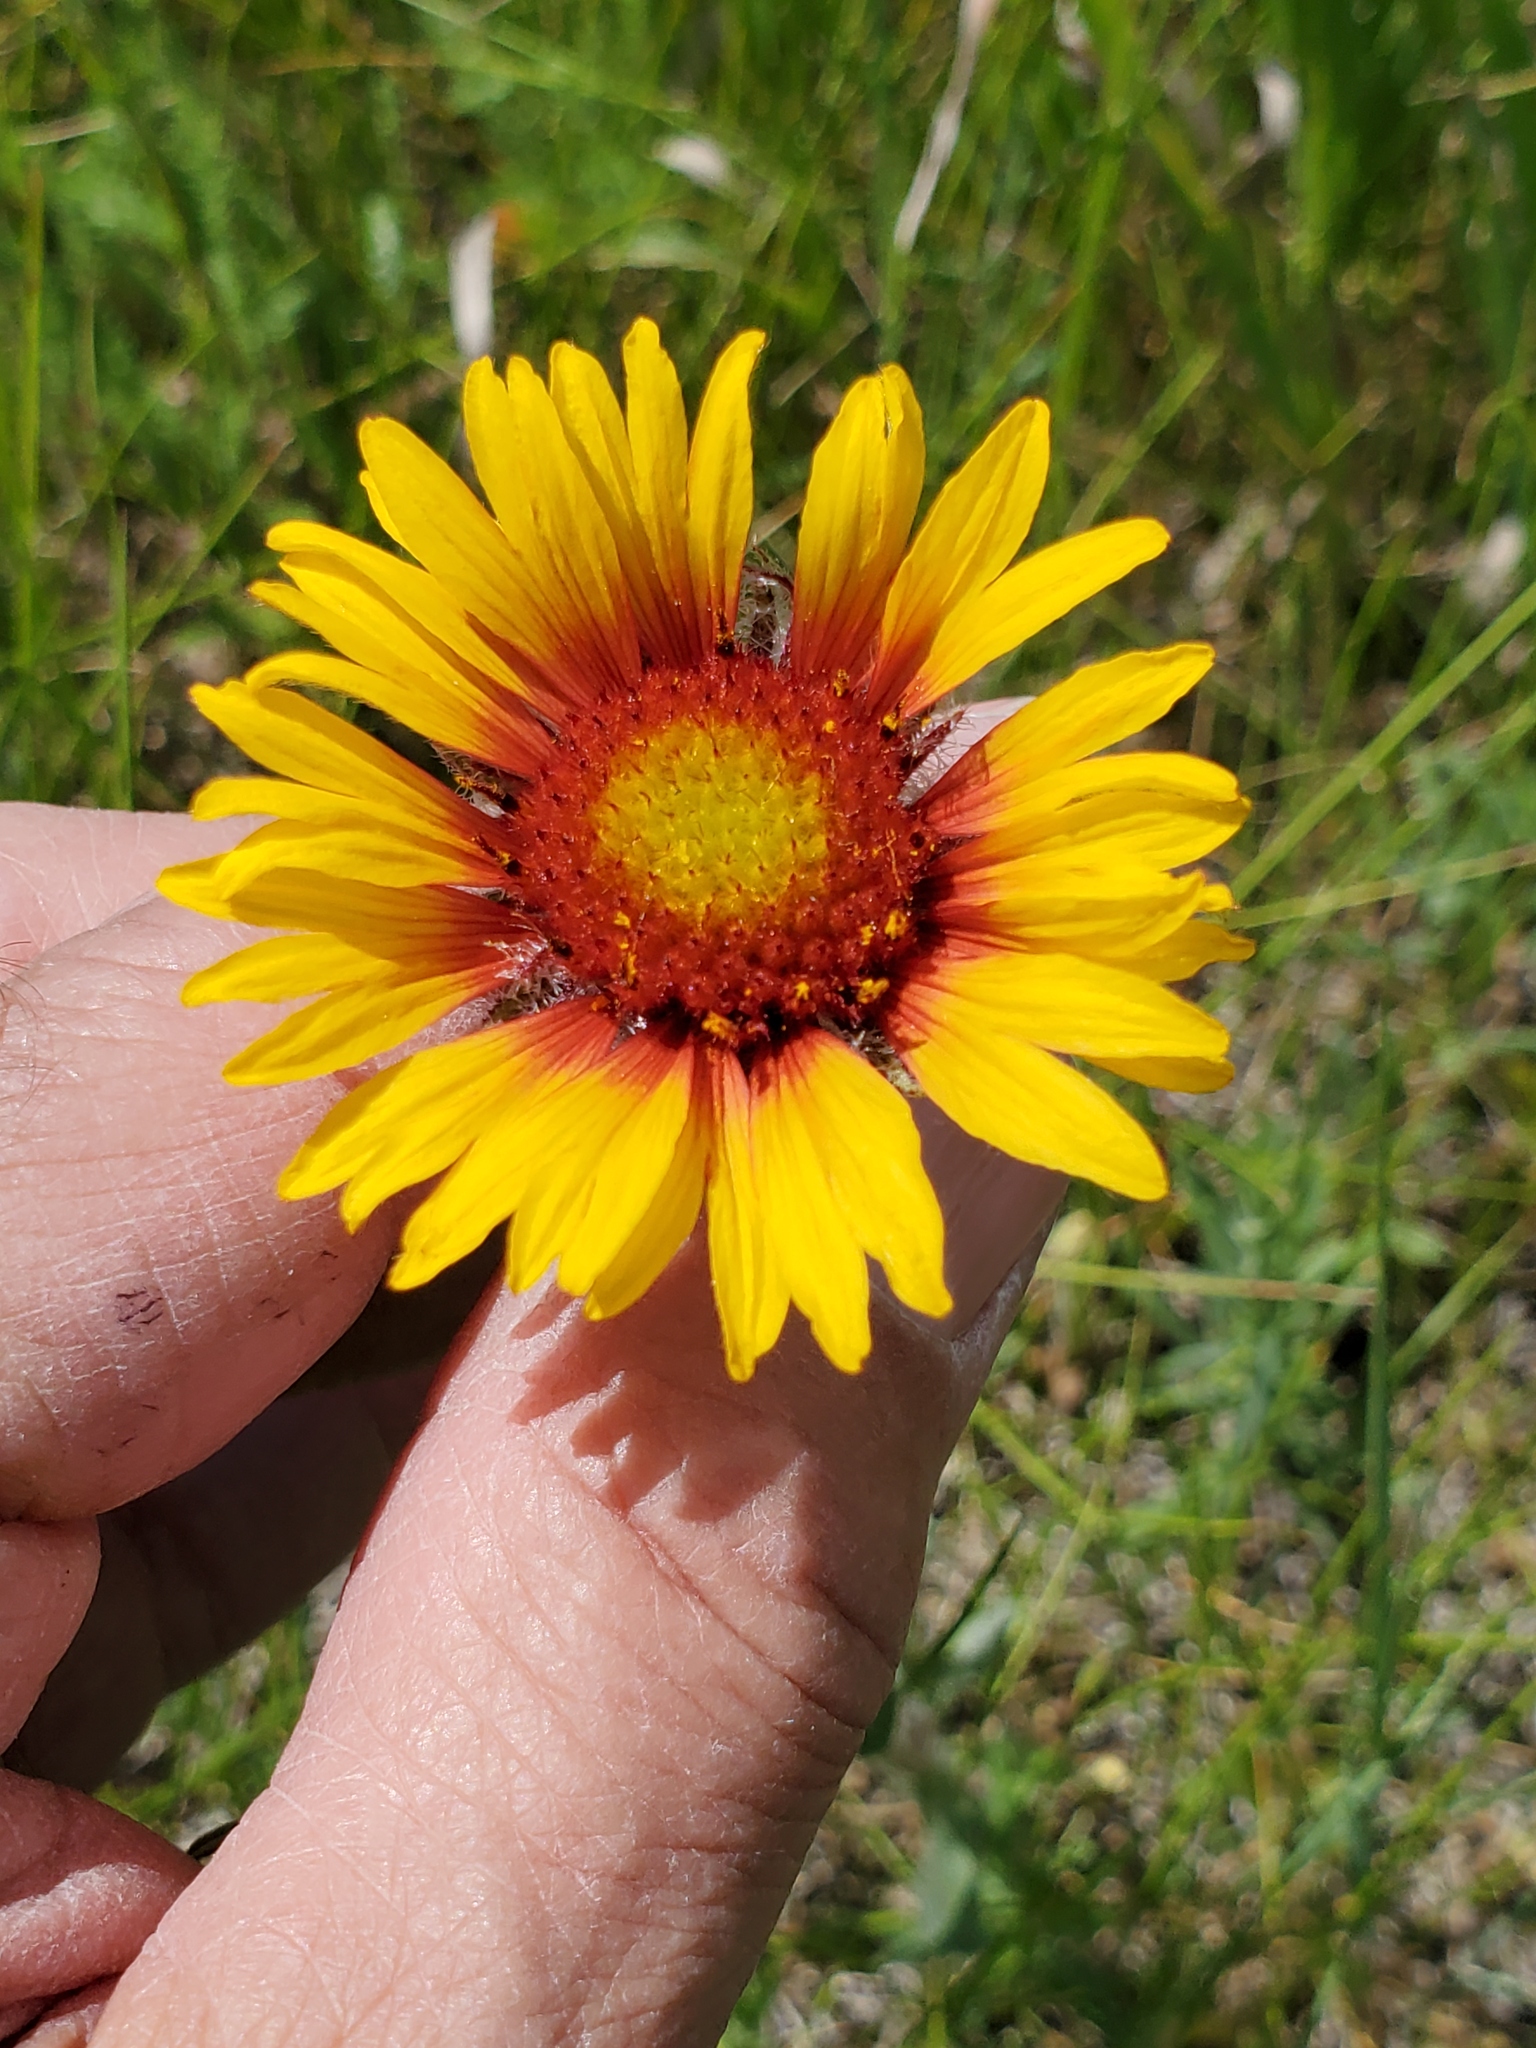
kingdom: Plantae
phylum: Tracheophyta
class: Magnoliopsida
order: Asterales
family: Asteraceae
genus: Gaillardia
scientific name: Gaillardia aristata
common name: Blanket-flower
